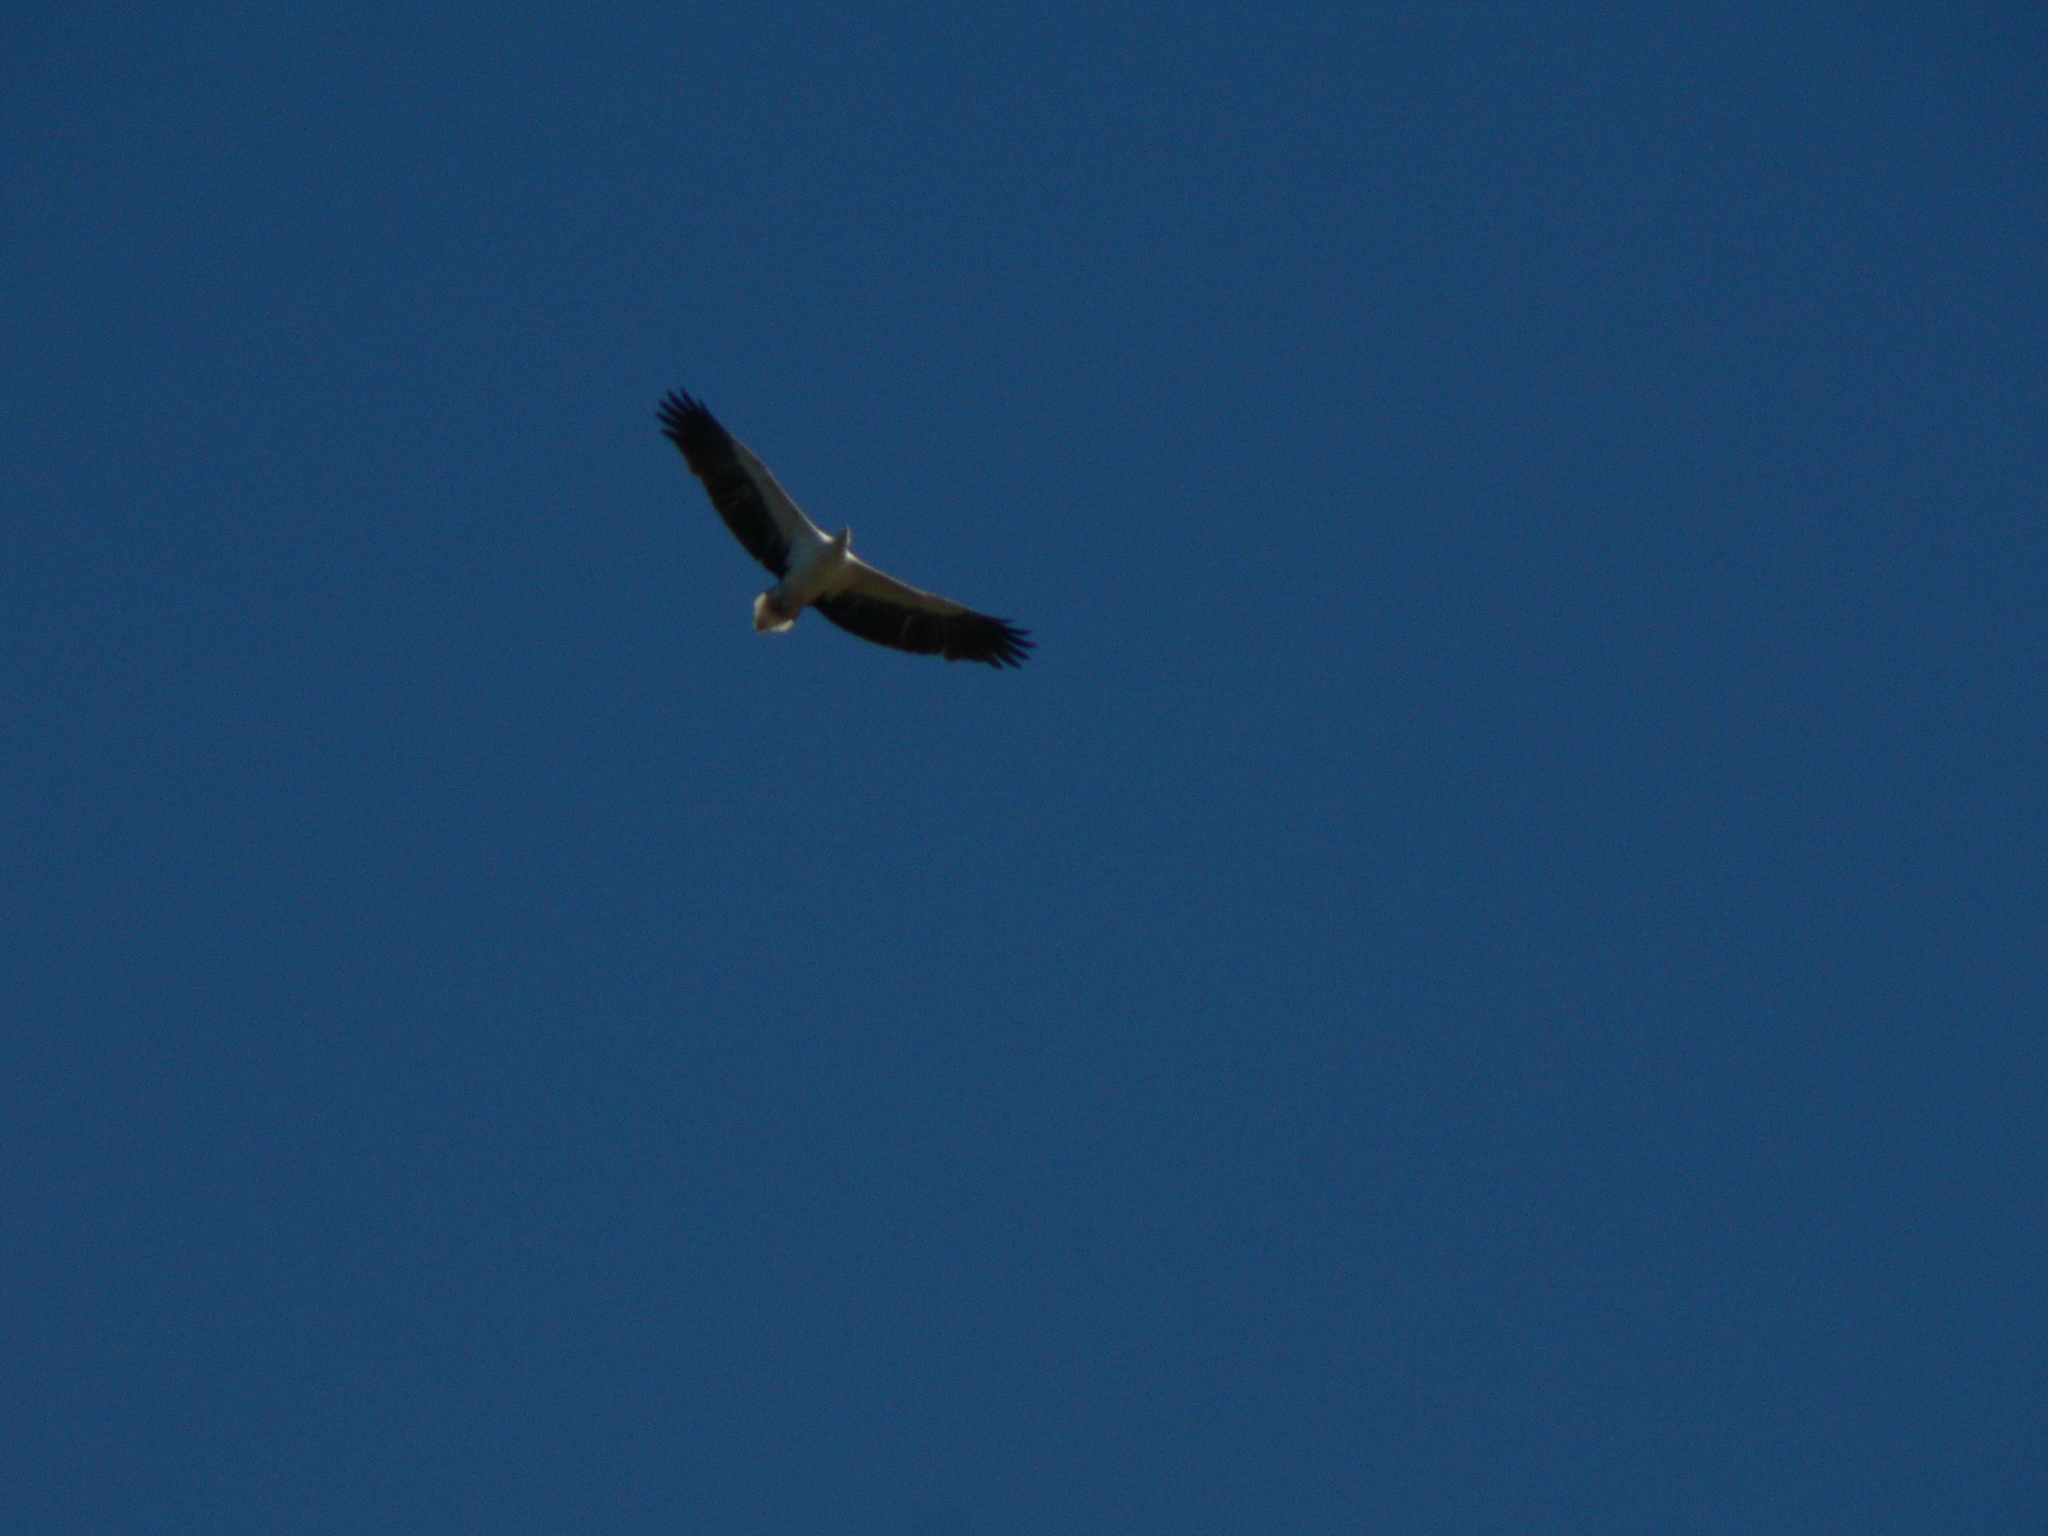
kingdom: Animalia
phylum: Chordata
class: Aves
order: Accipitriformes
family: Accipitridae
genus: Haliaeetus
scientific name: Haliaeetus leucogaster
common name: White-bellied sea eagle
